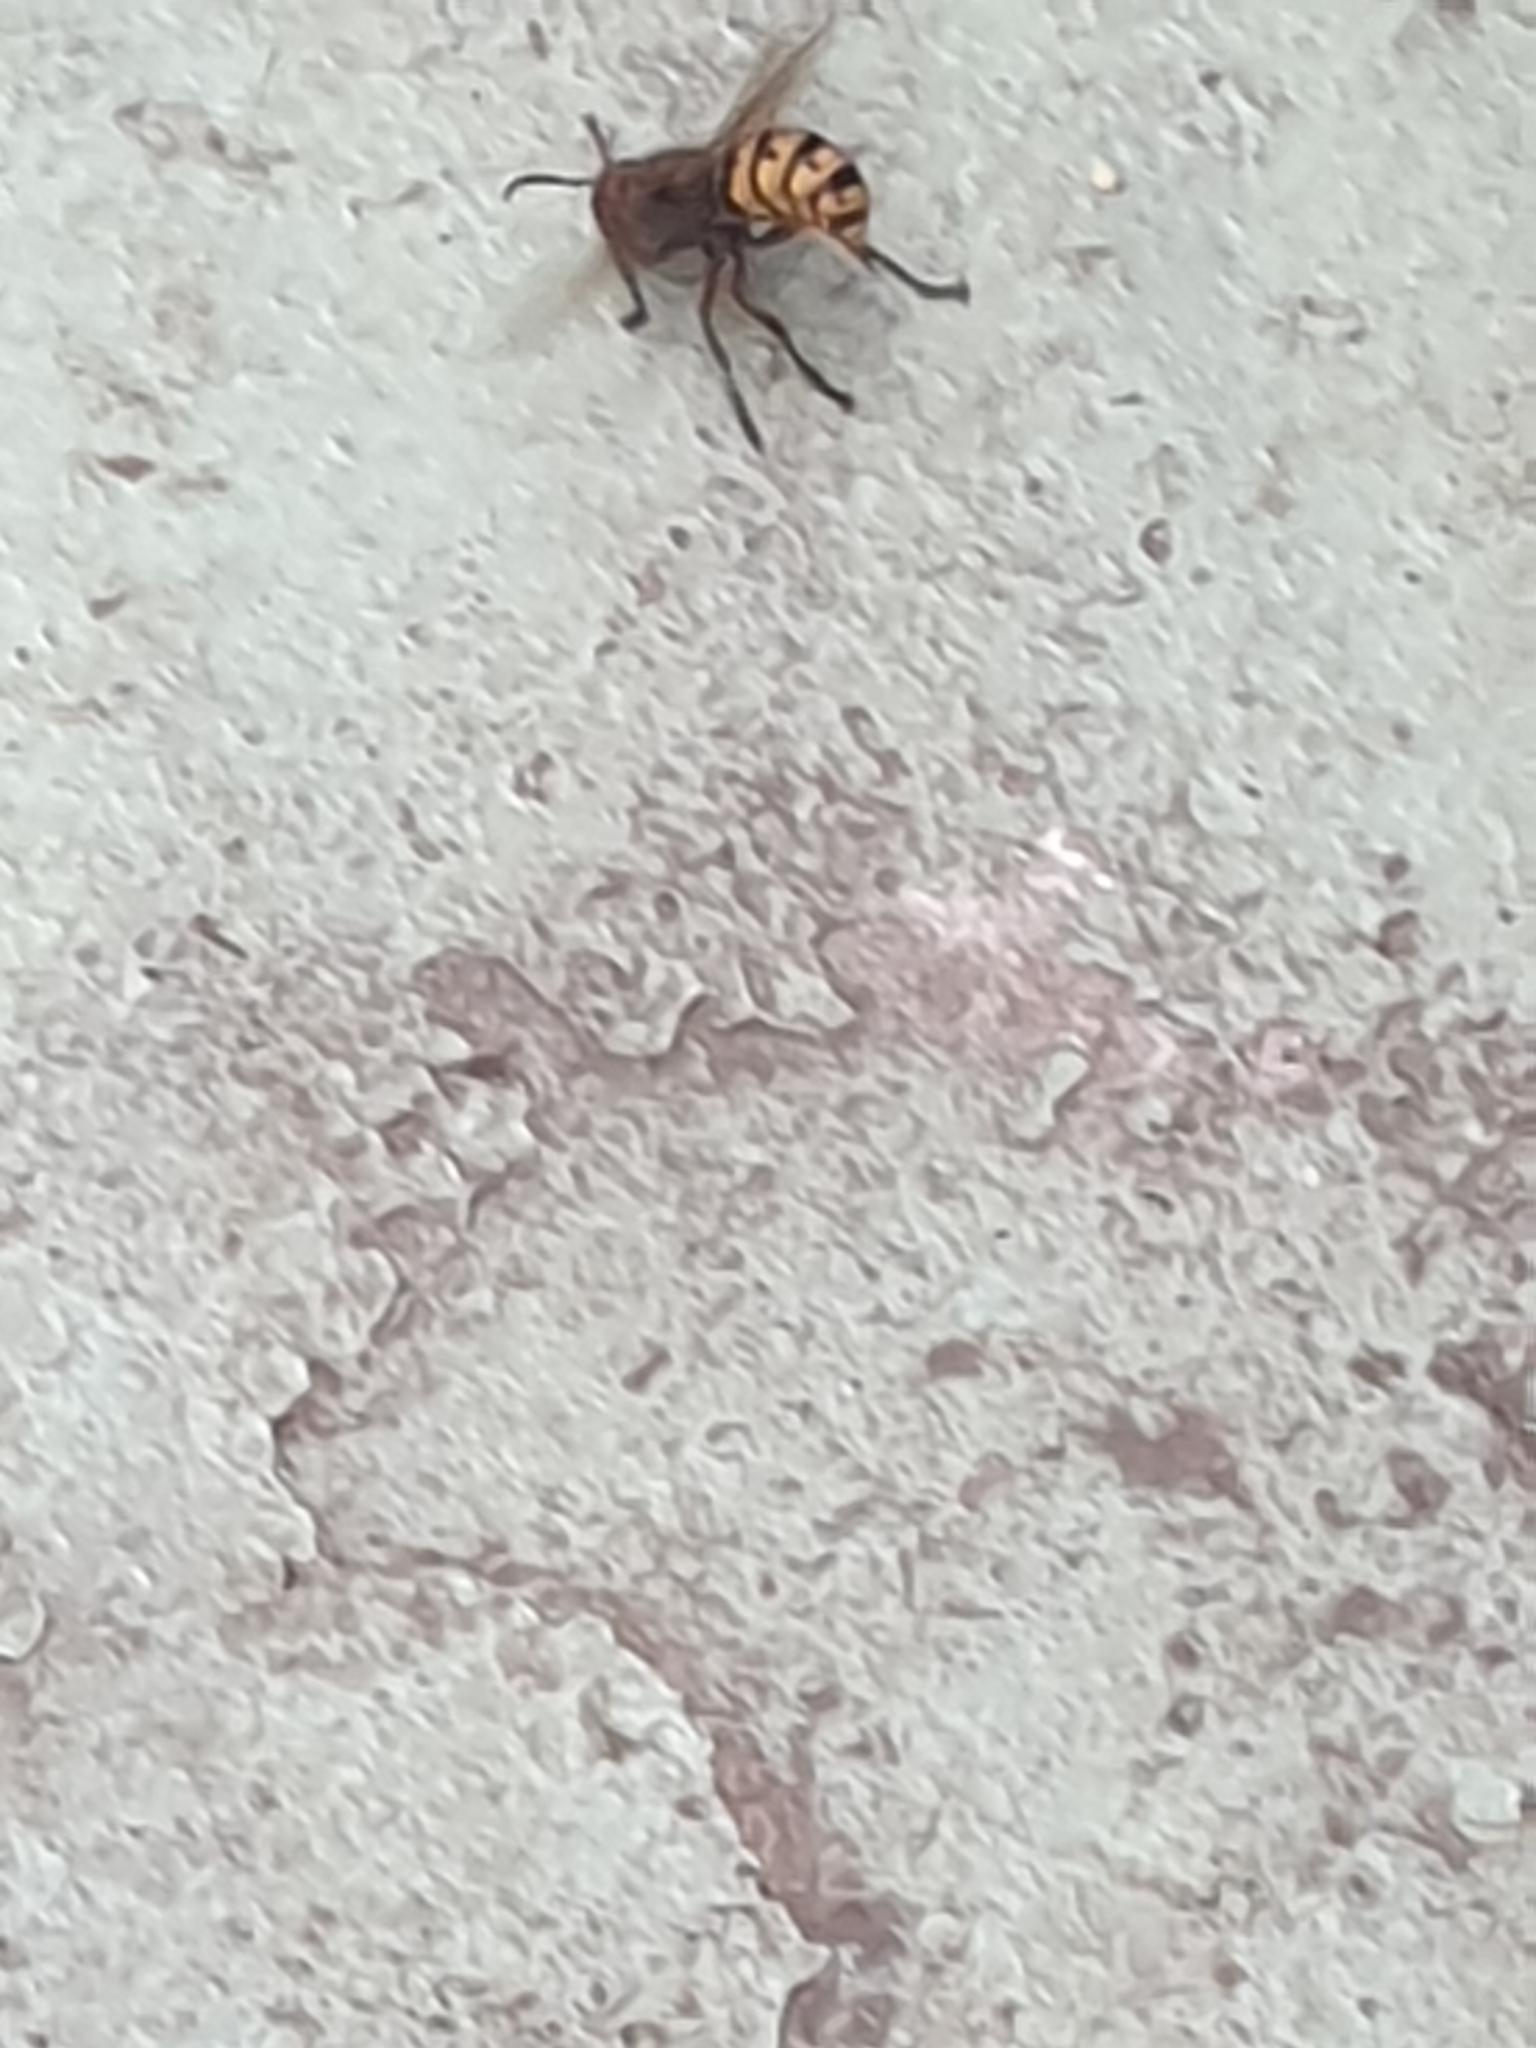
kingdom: Animalia
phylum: Arthropoda
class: Insecta
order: Hymenoptera
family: Vespidae
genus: Vespa
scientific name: Vespa crabro
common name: Hornet
